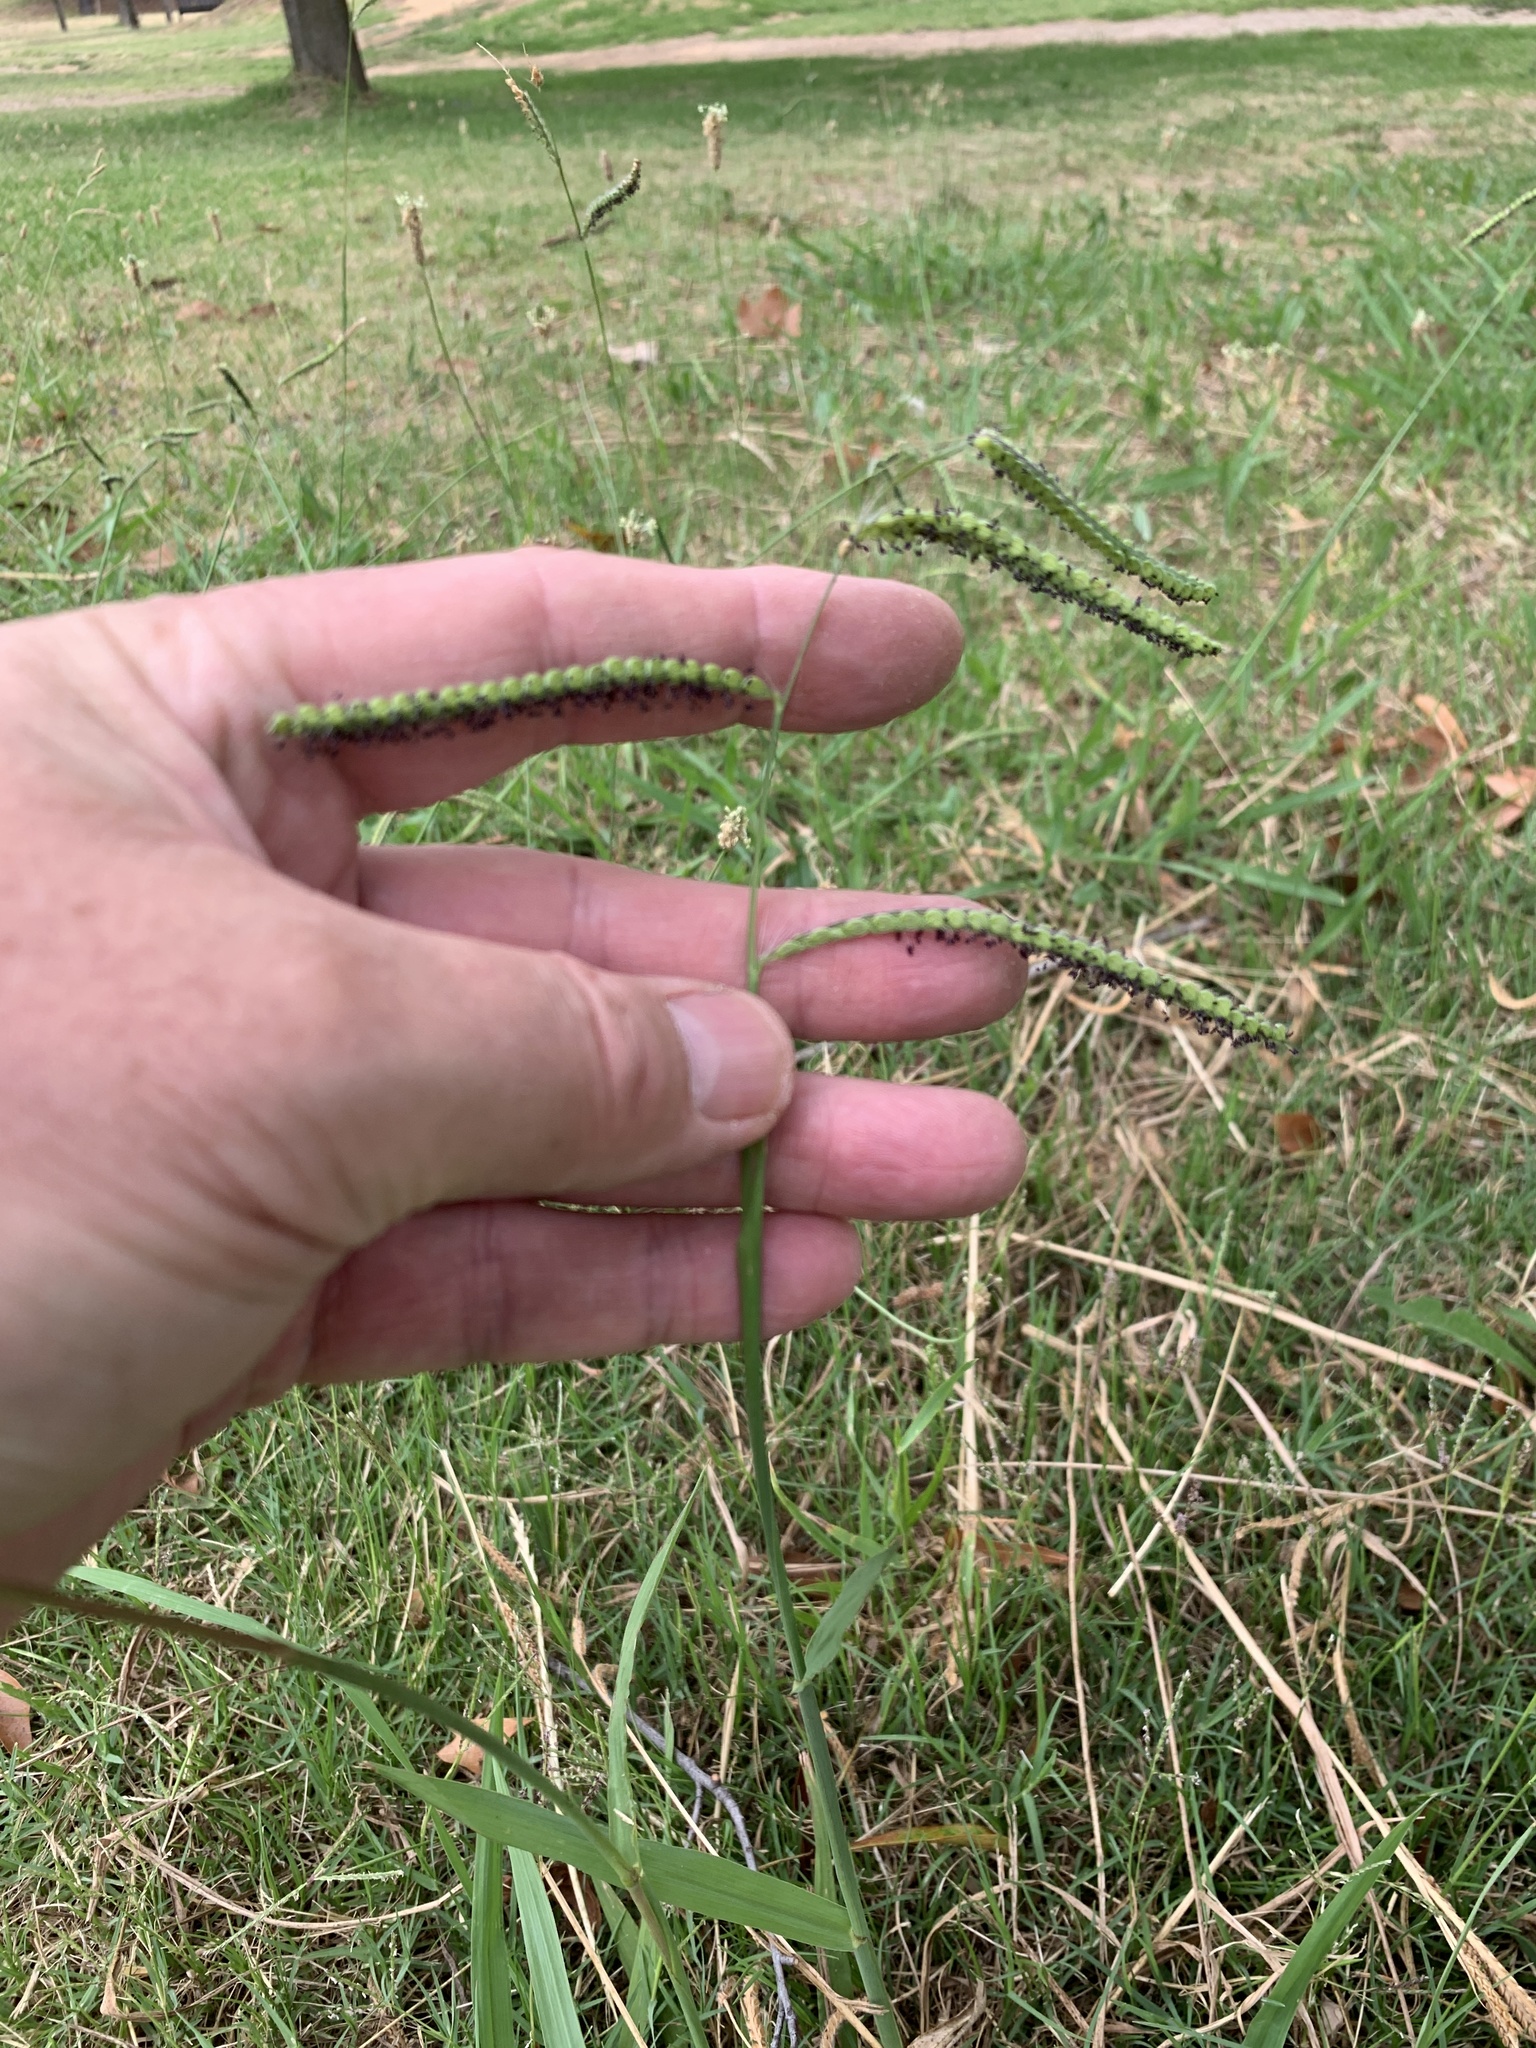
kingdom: Plantae
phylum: Tracheophyta
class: Liliopsida
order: Poales
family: Poaceae
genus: Paspalum
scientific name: Paspalum dilatatum
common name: Dallisgrass
